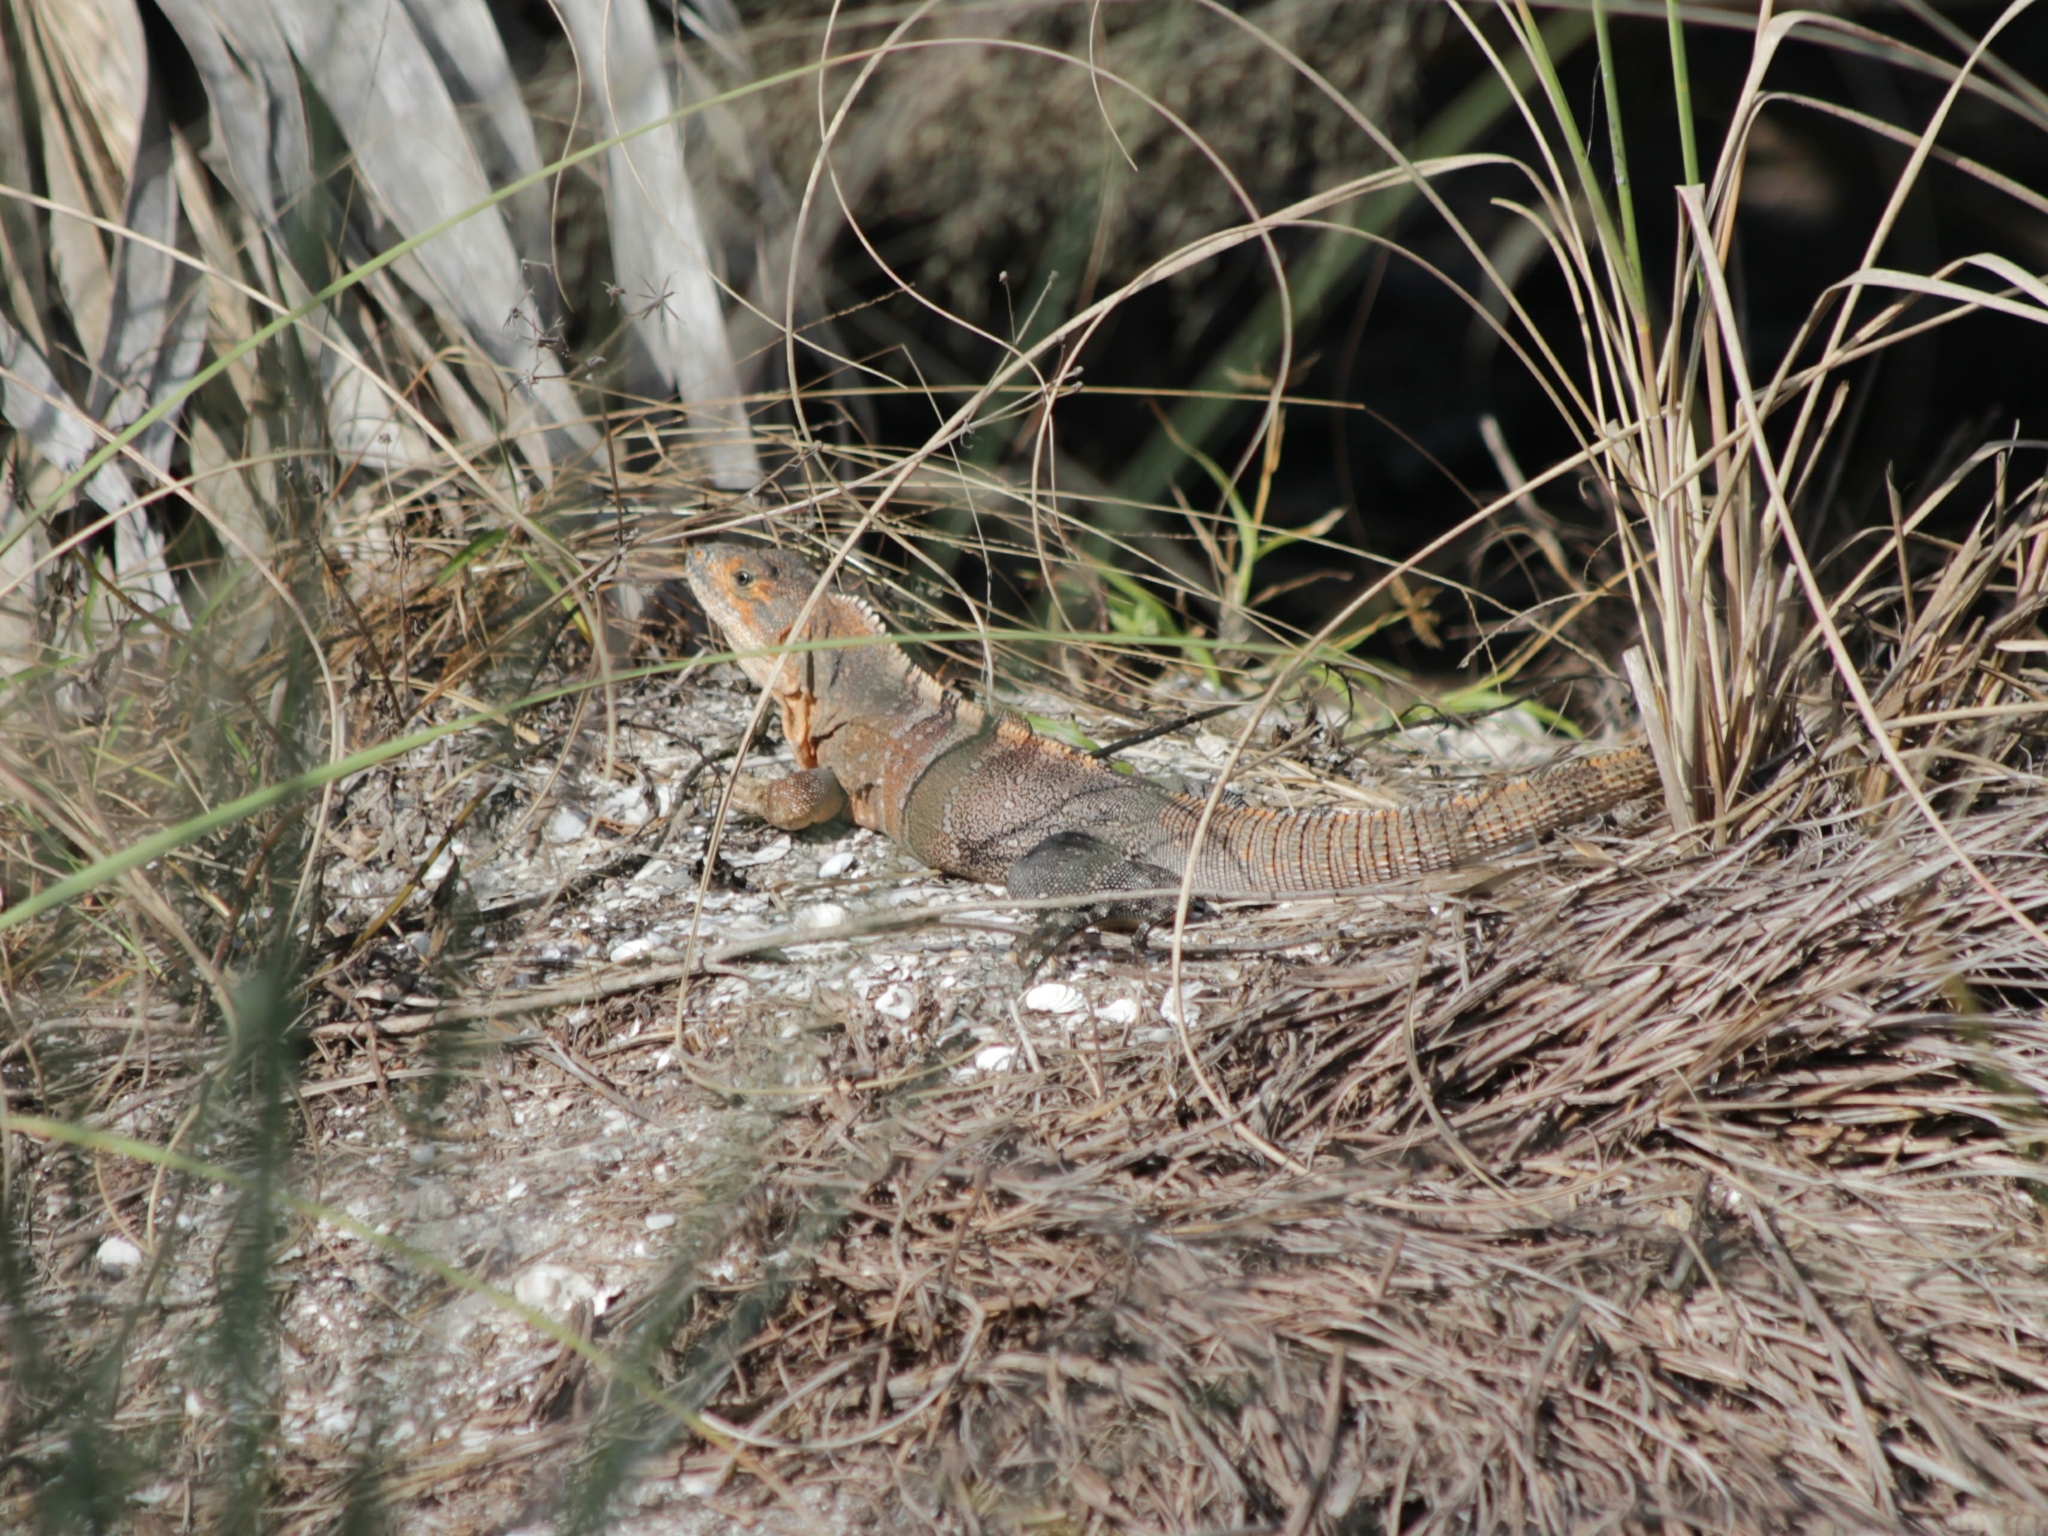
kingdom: Animalia
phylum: Chordata
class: Squamata
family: Iguanidae
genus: Ctenosaura
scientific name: Ctenosaura similis
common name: Black spiny-tailed iguana
